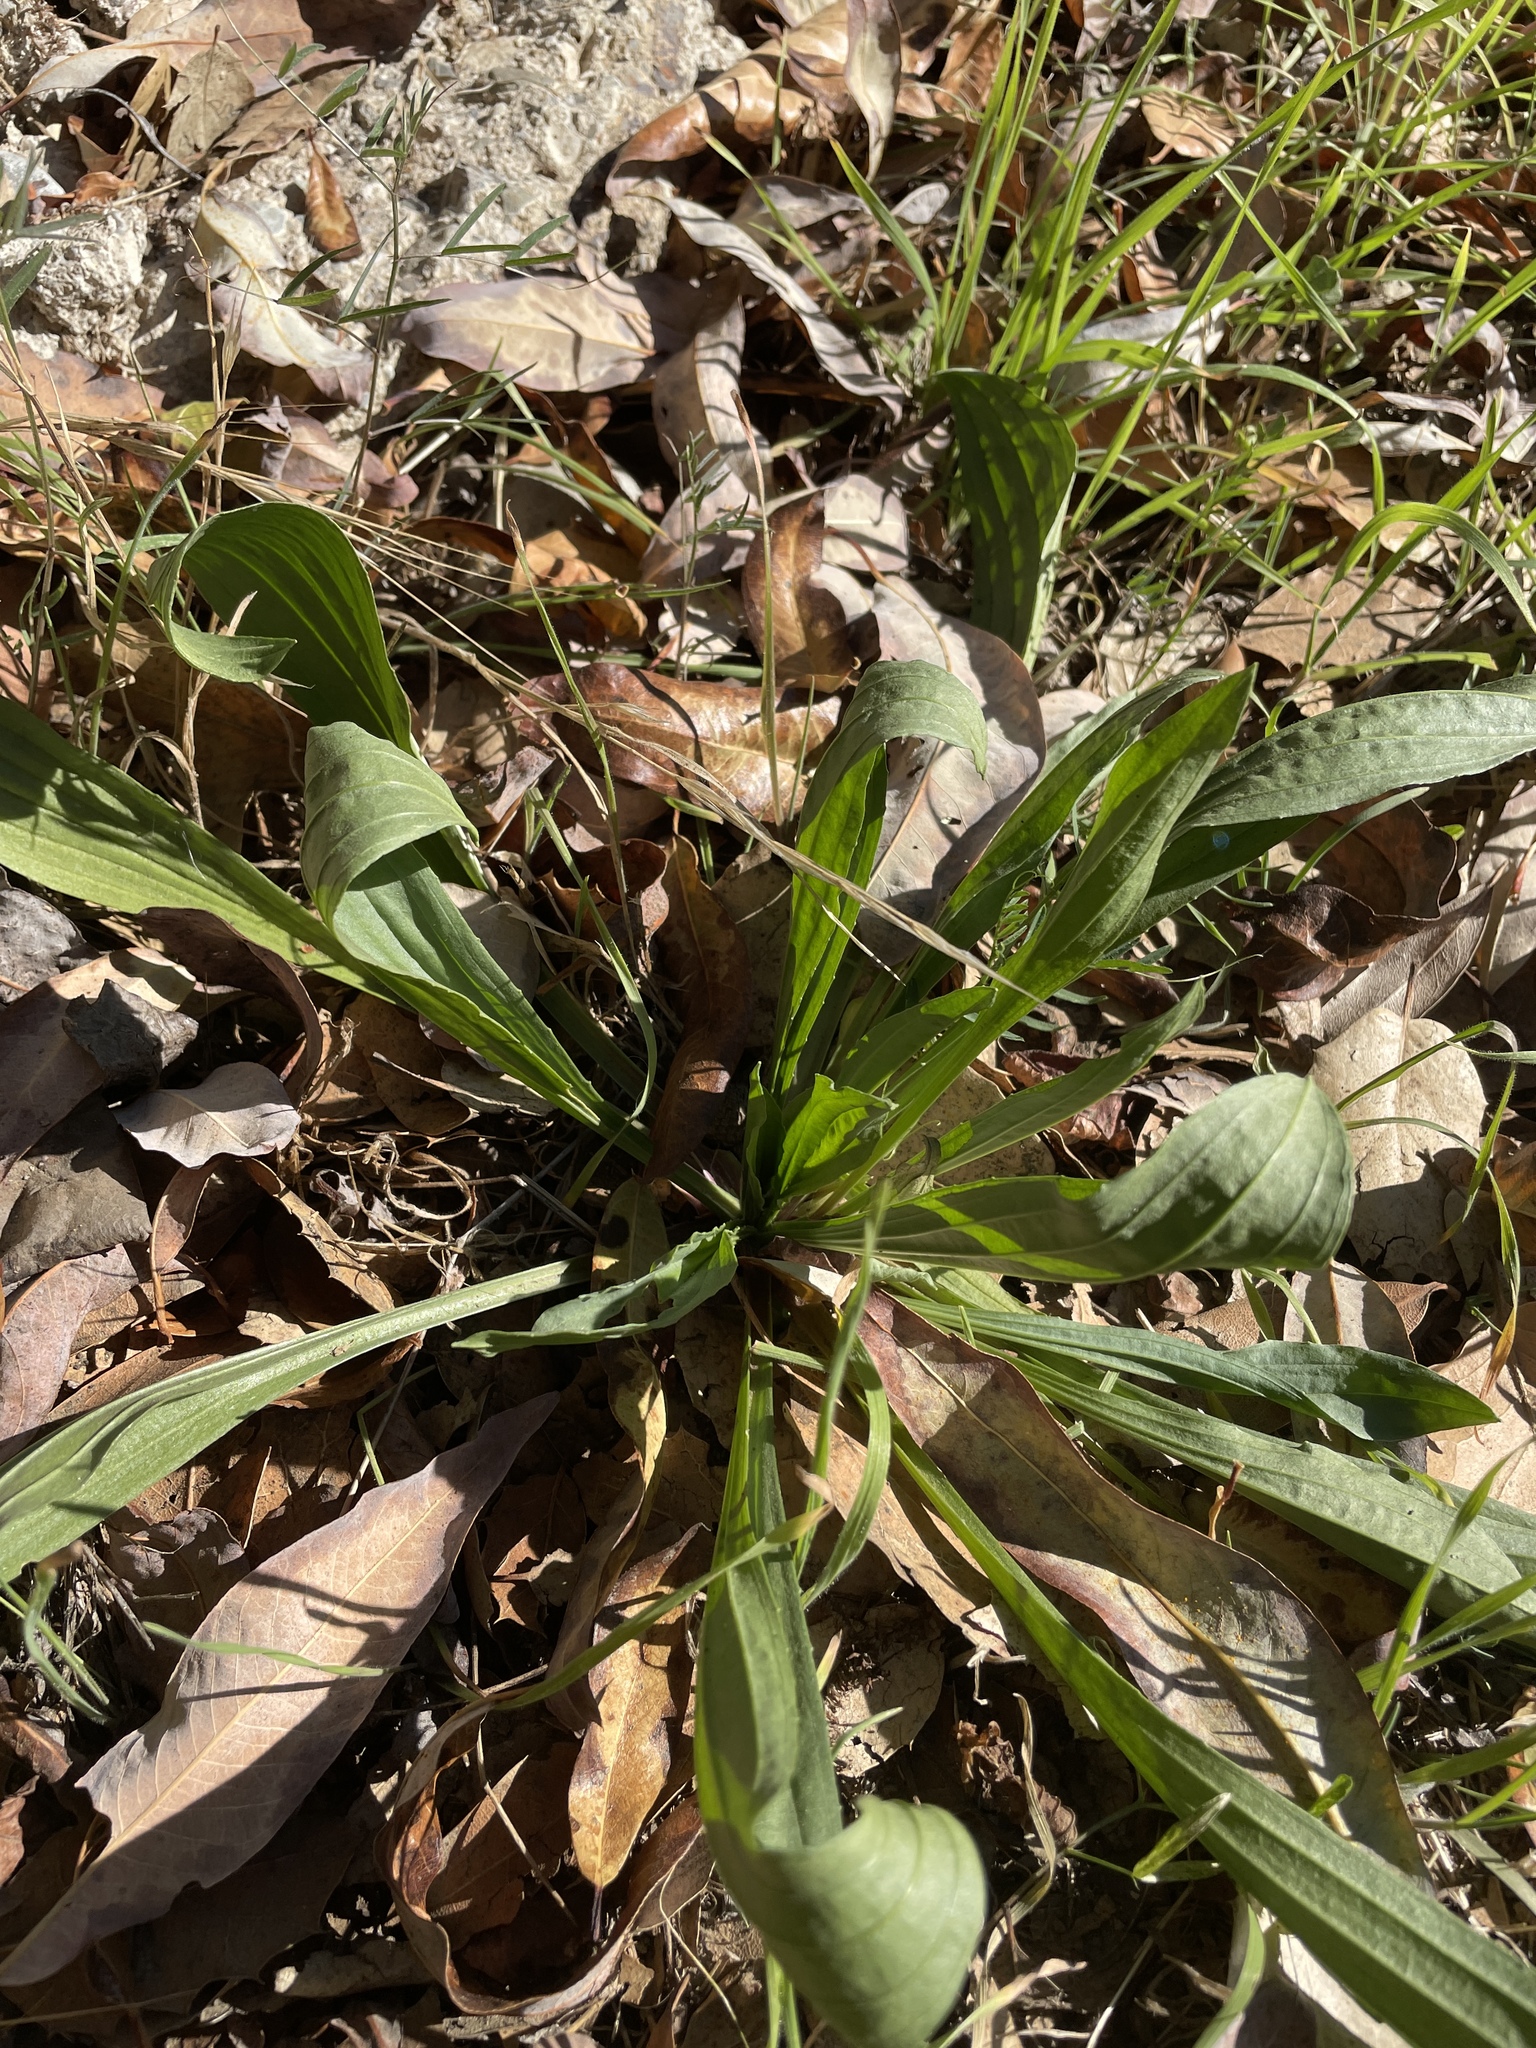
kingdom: Plantae
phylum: Tracheophyta
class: Magnoliopsida
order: Lamiales
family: Plantaginaceae
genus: Plantago
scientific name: Plantago lanceolata
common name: Ribwort plantain
